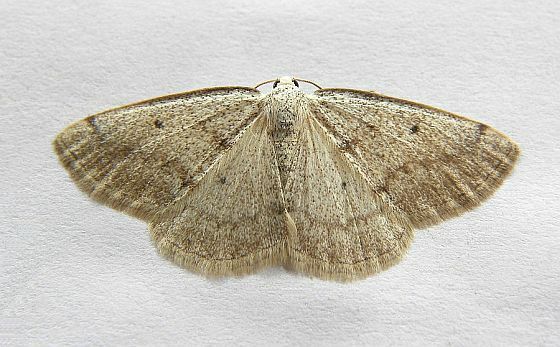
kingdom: Animalia
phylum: Arthropoda
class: Insecta
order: Lepidoptera
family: Geometridae
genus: Lomographa
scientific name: Lomographa glomeraria
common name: Gray spring moth
